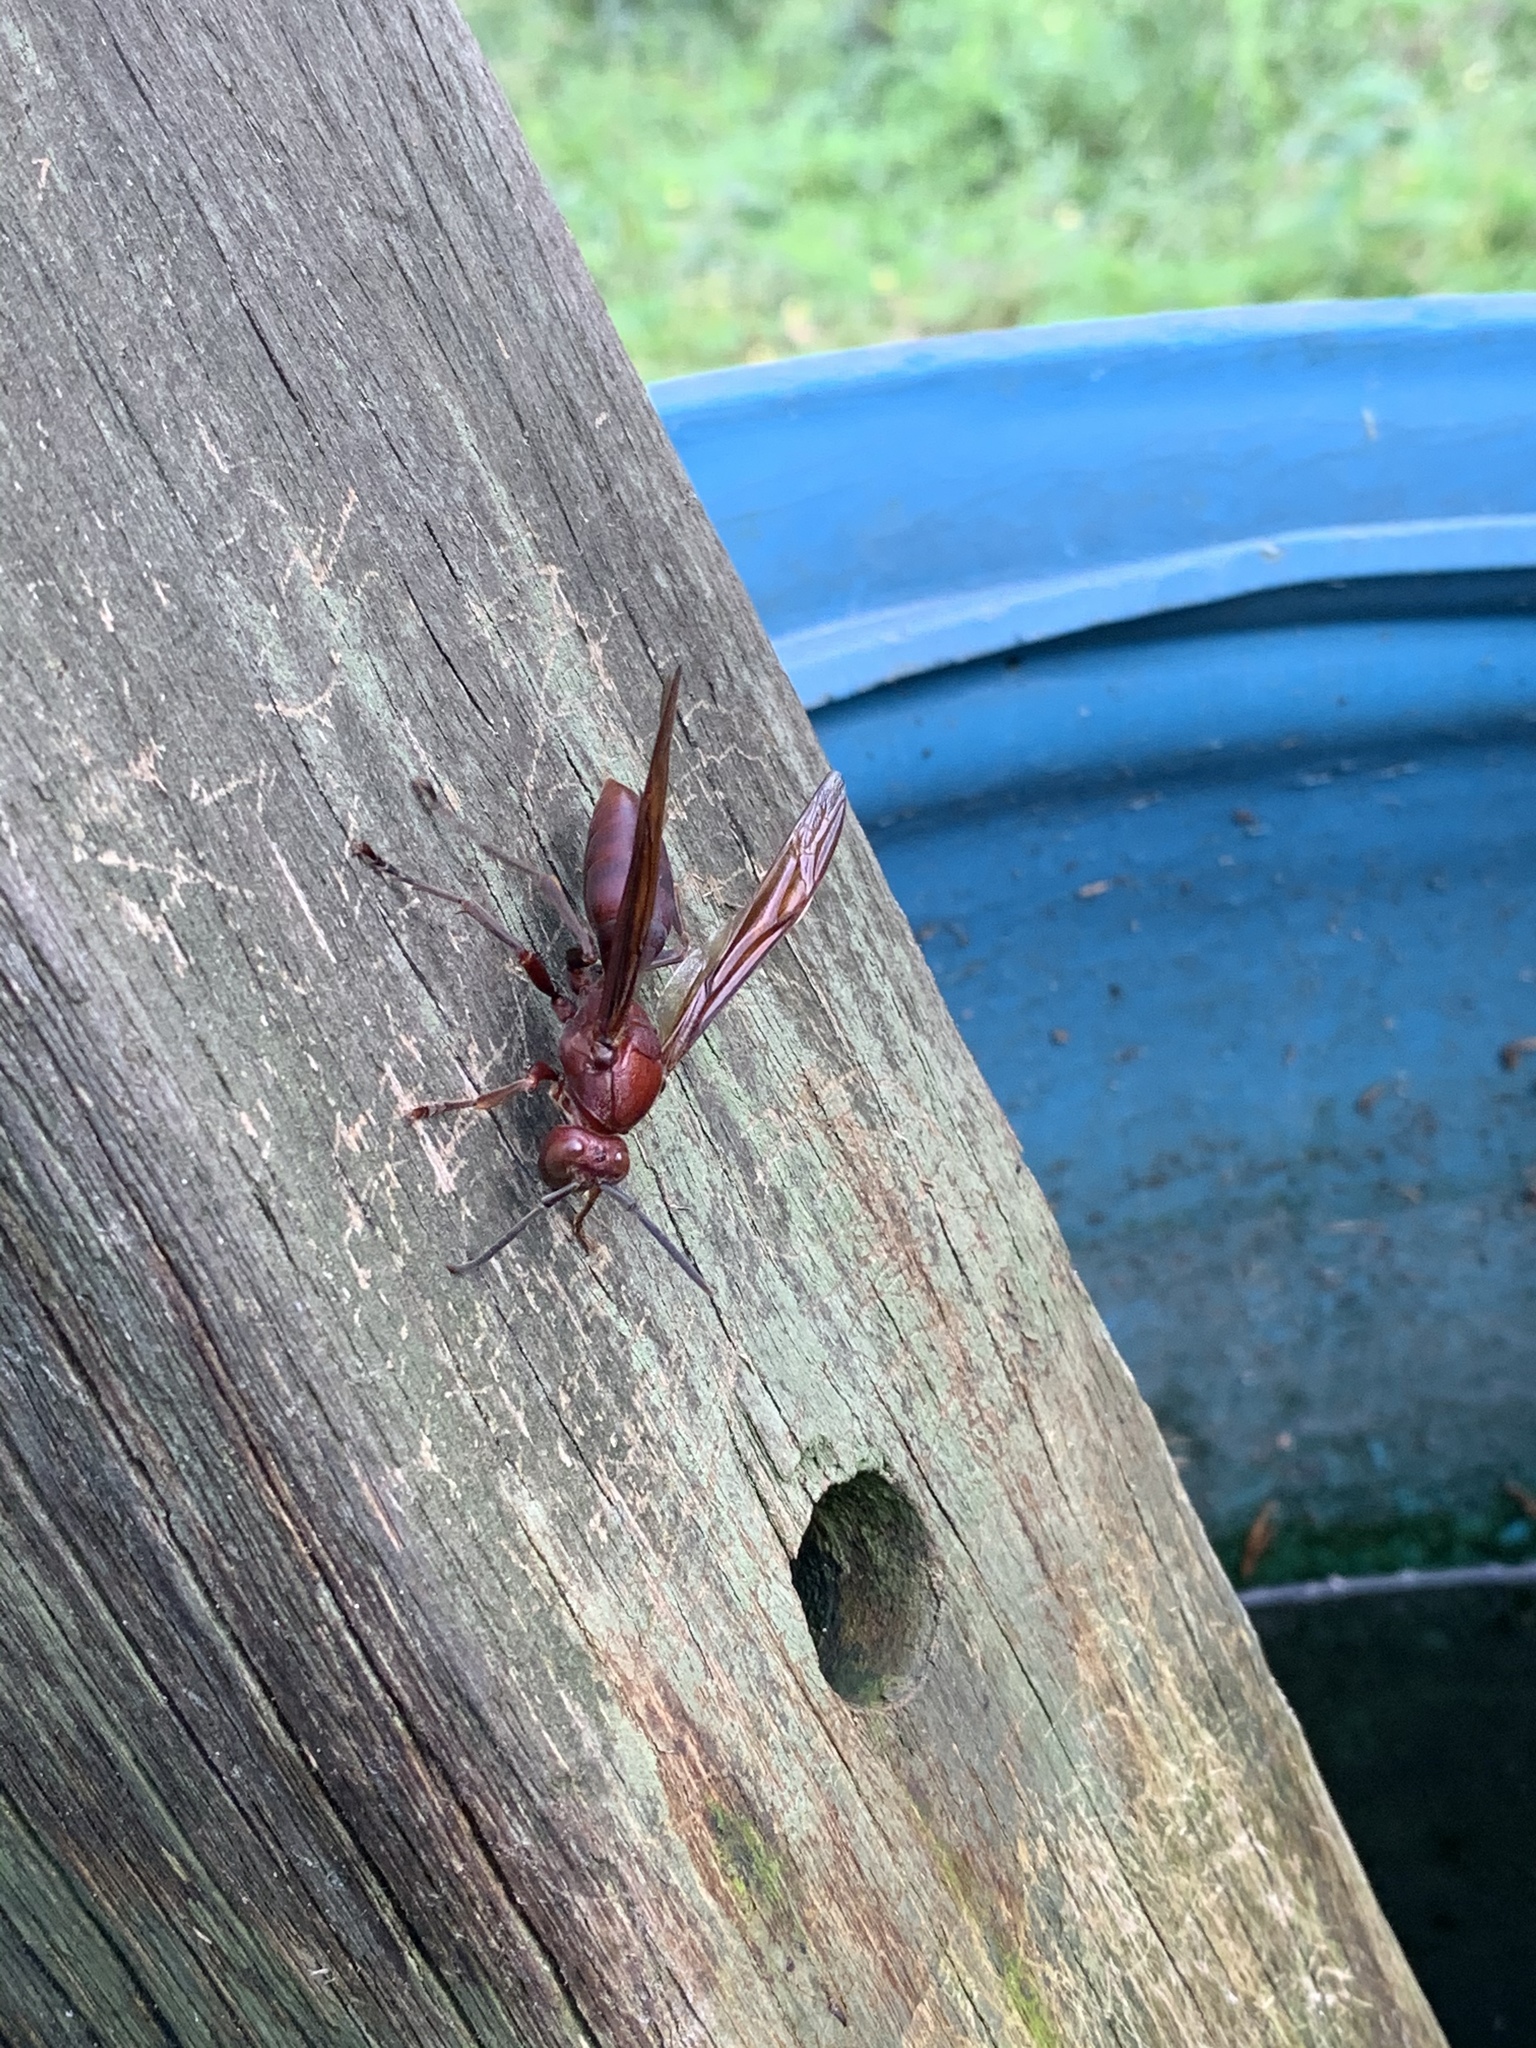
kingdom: Animalia
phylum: Arthropoda
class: Insecta
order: Hymenoptera
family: Eumenidae
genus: Polistes
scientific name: Polistes gigas
